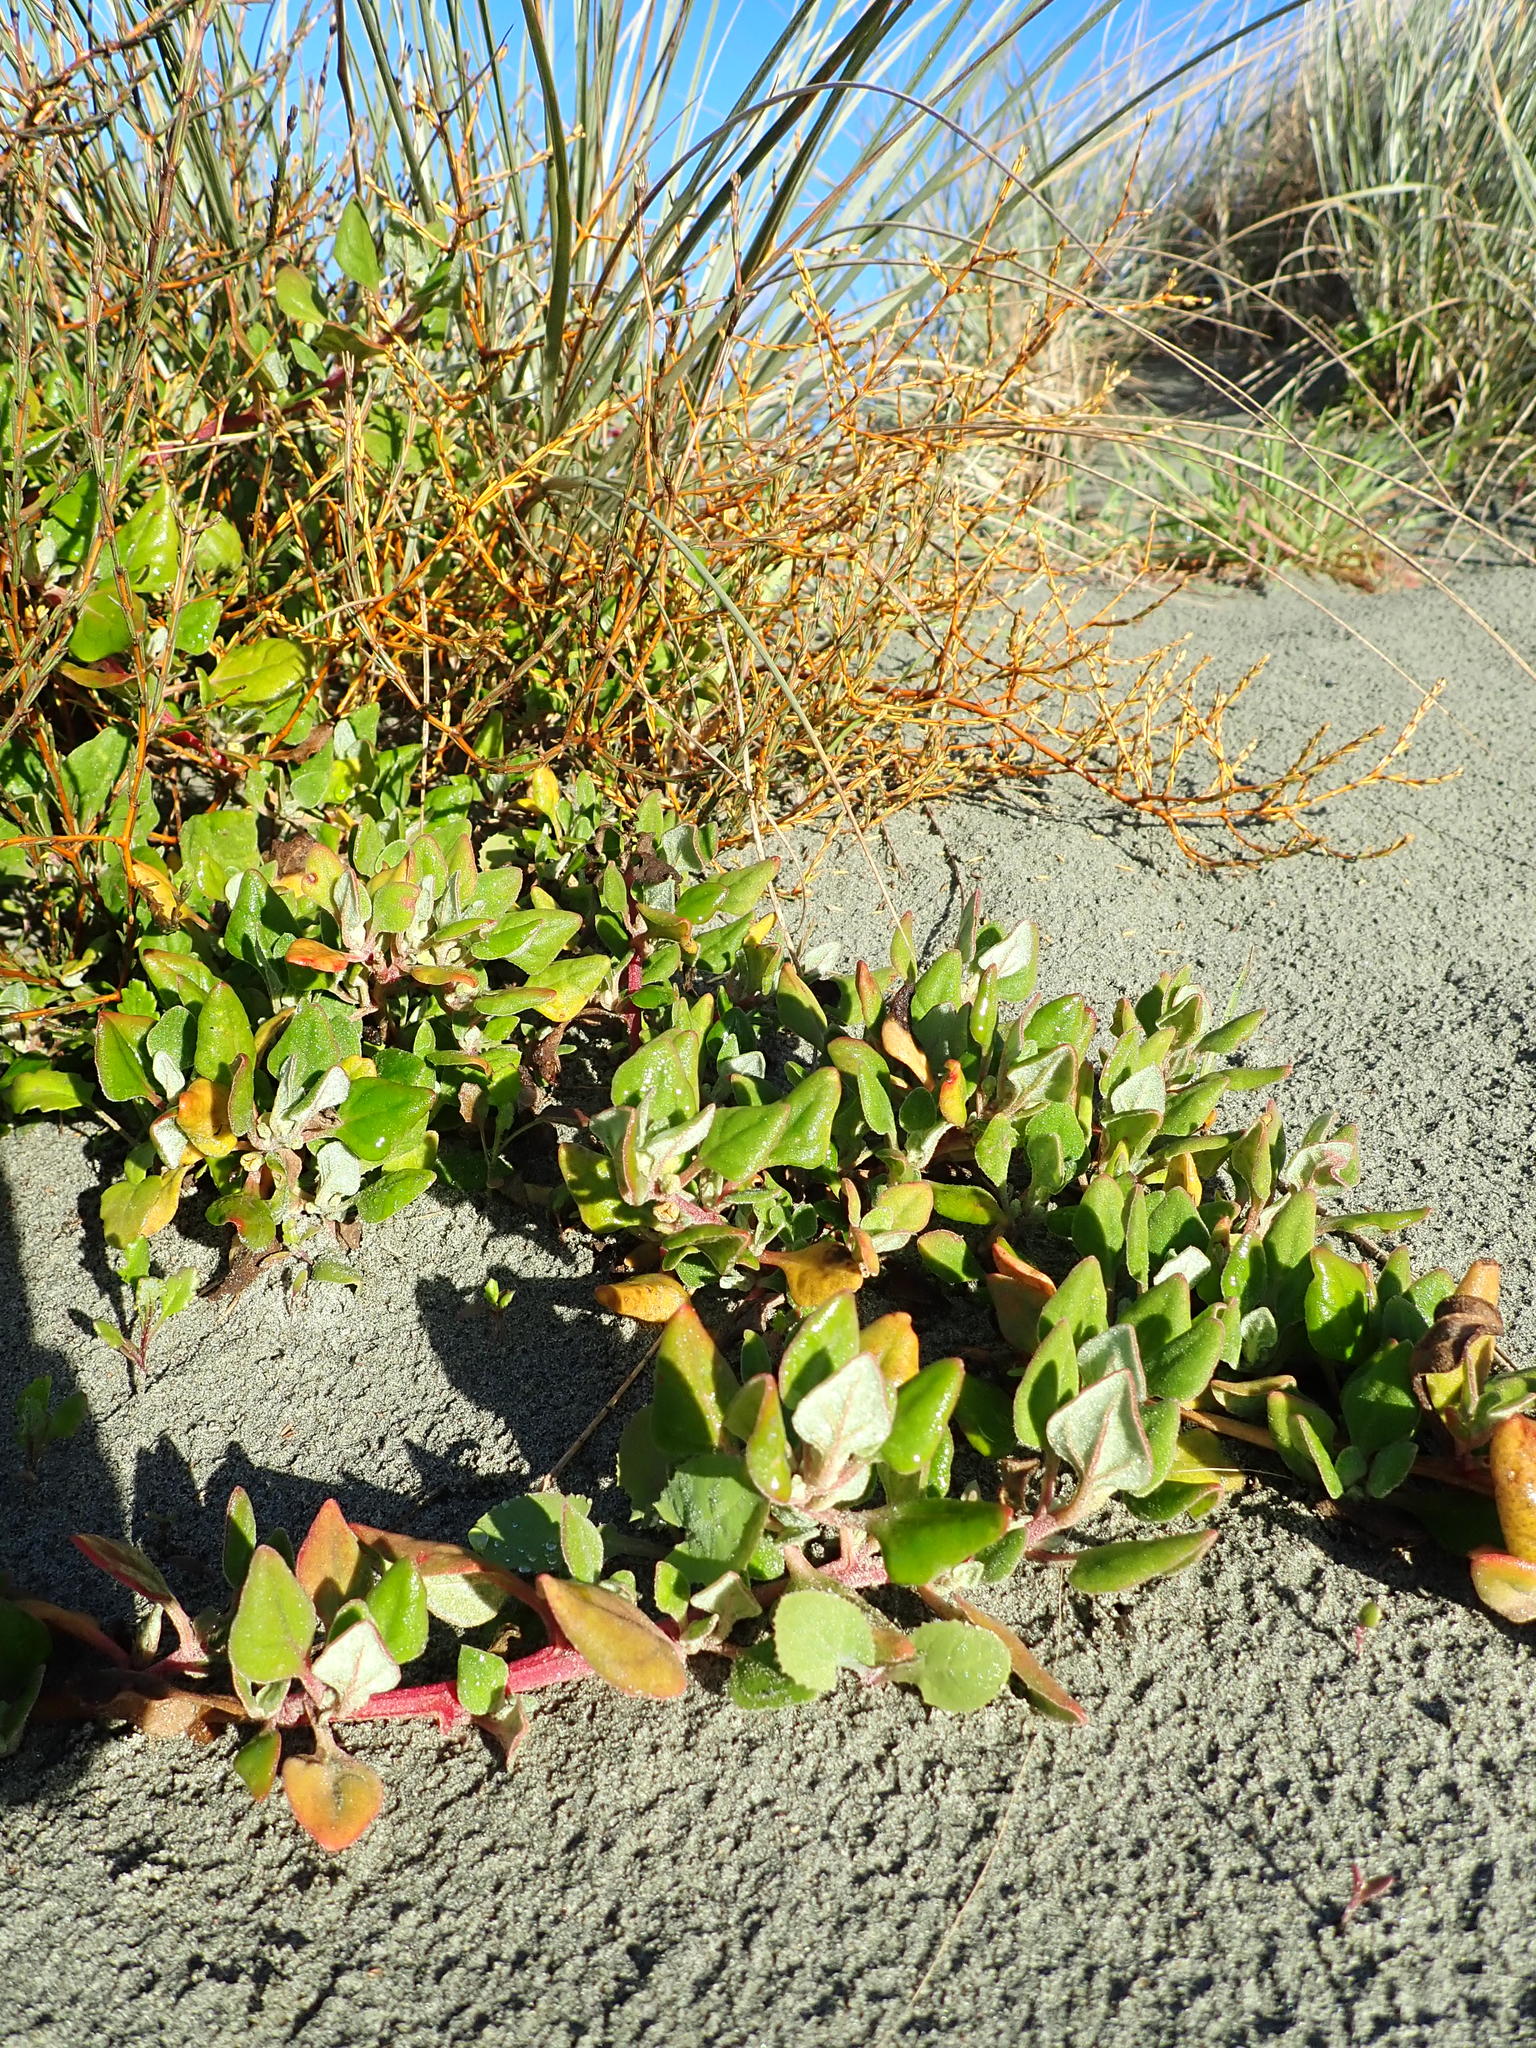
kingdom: Plantae
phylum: Tracheophyta
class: Magnoliopsida
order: Gentianales
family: Rubiaceae
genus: Coprosma
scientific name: Coprosma acerosa
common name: Sand coprosma
